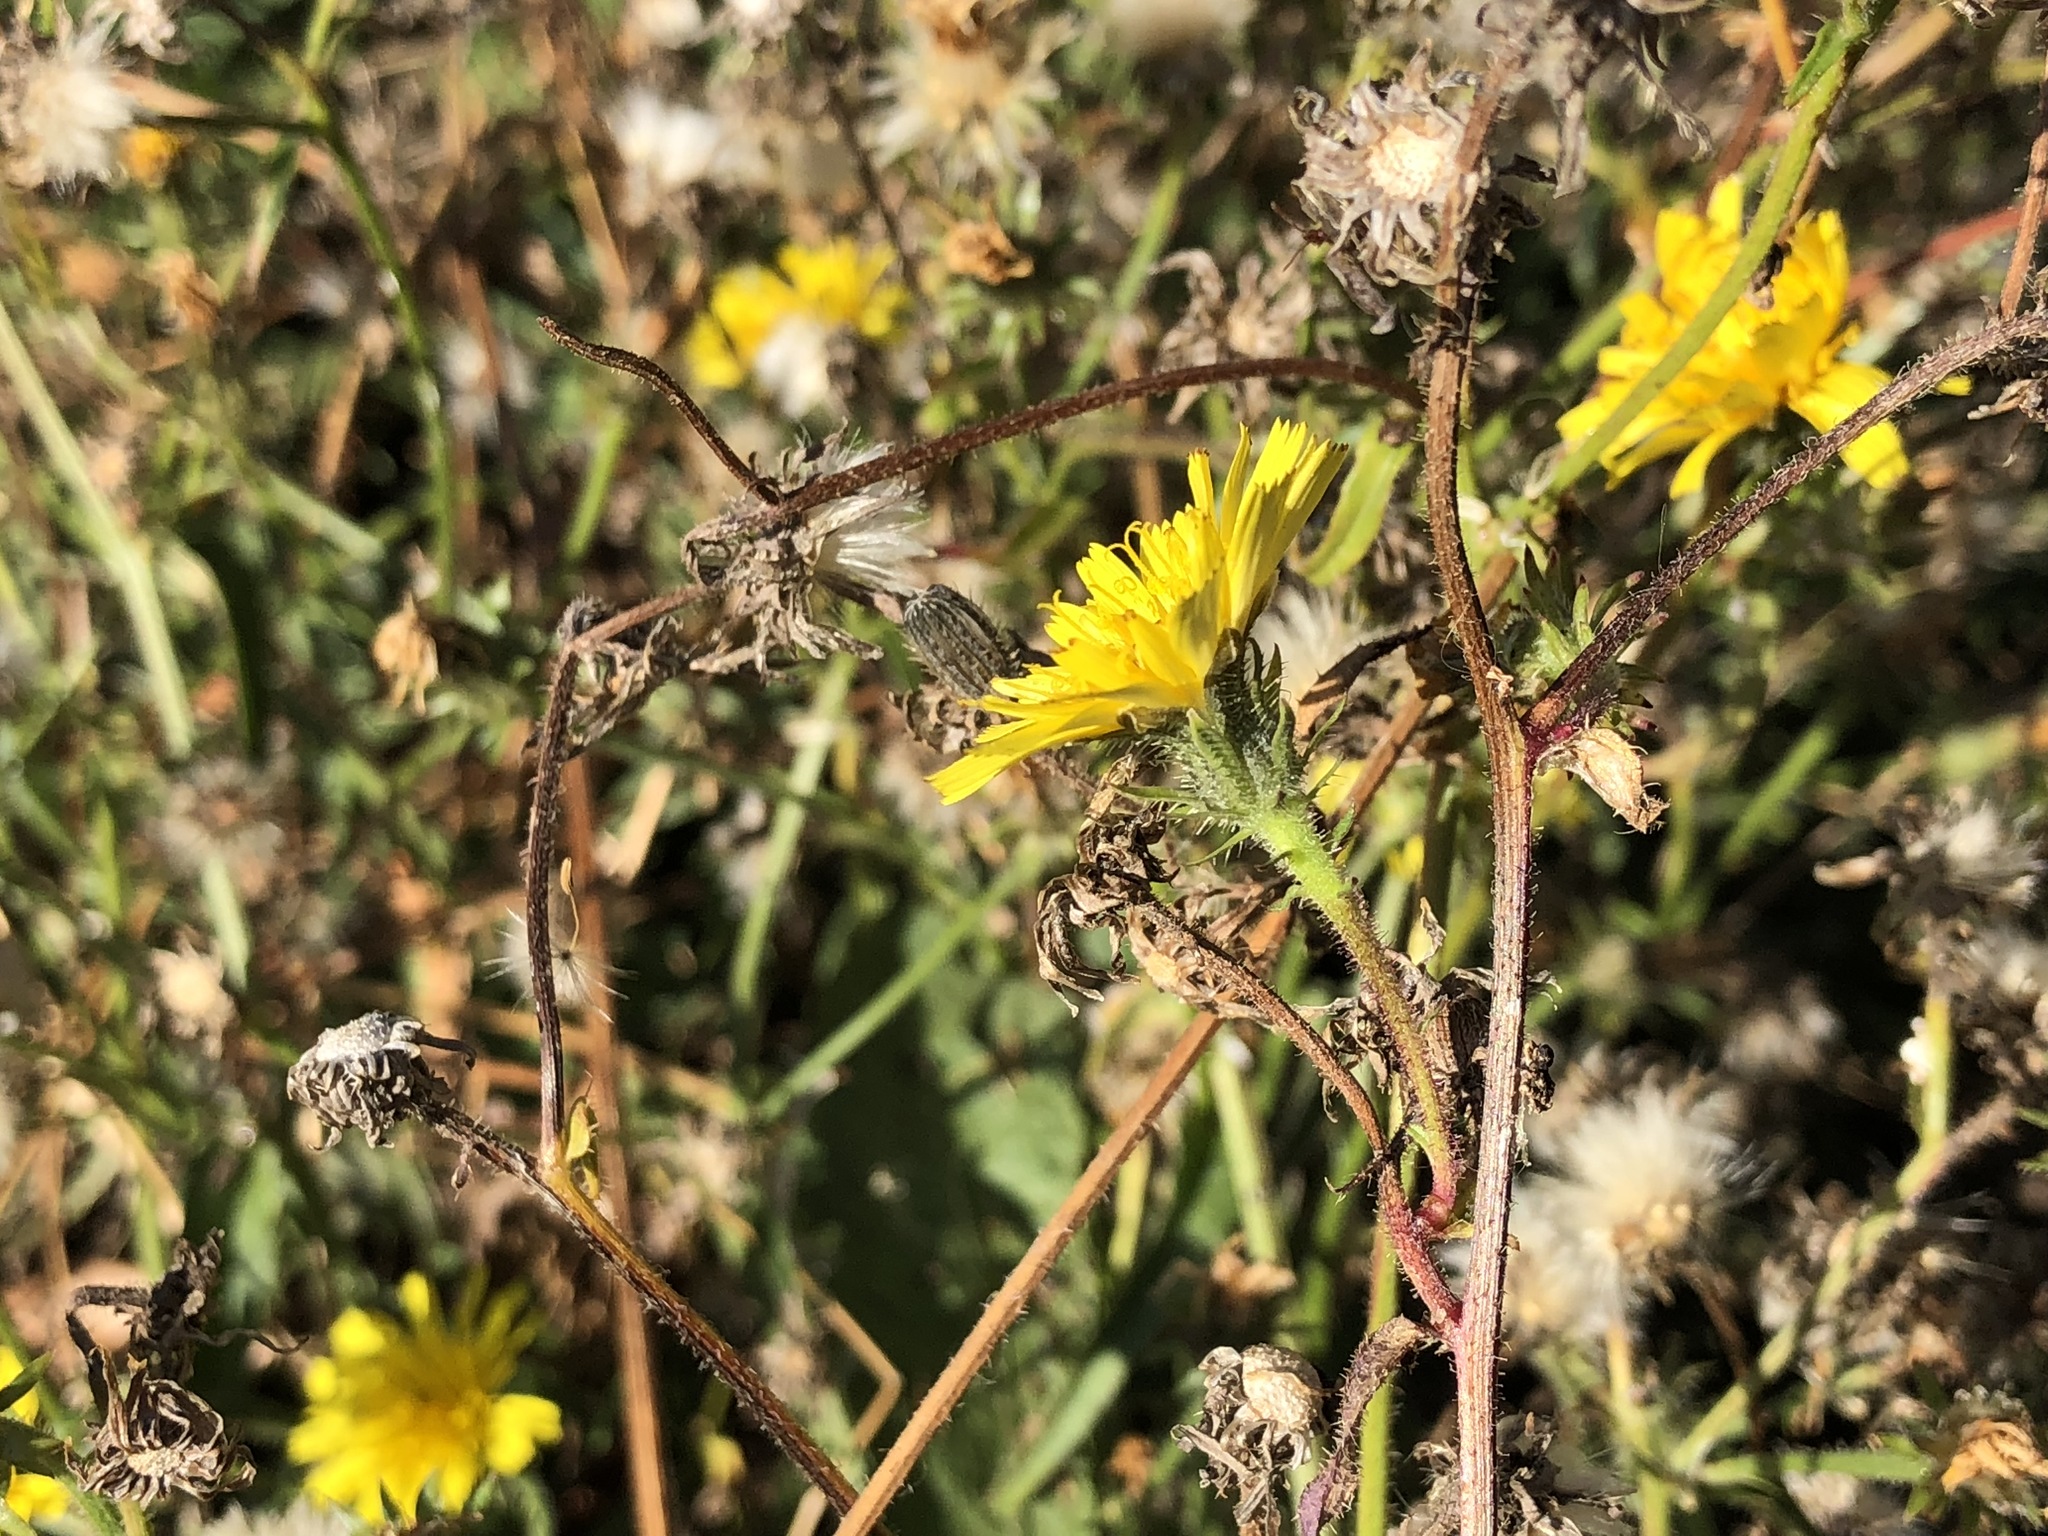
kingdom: Plantae
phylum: Tracheophyta
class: Magnoliopsida
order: Asterales
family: Asteraceae
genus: Picris
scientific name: Picris hieracioides
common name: Hawkweed oxtongue
